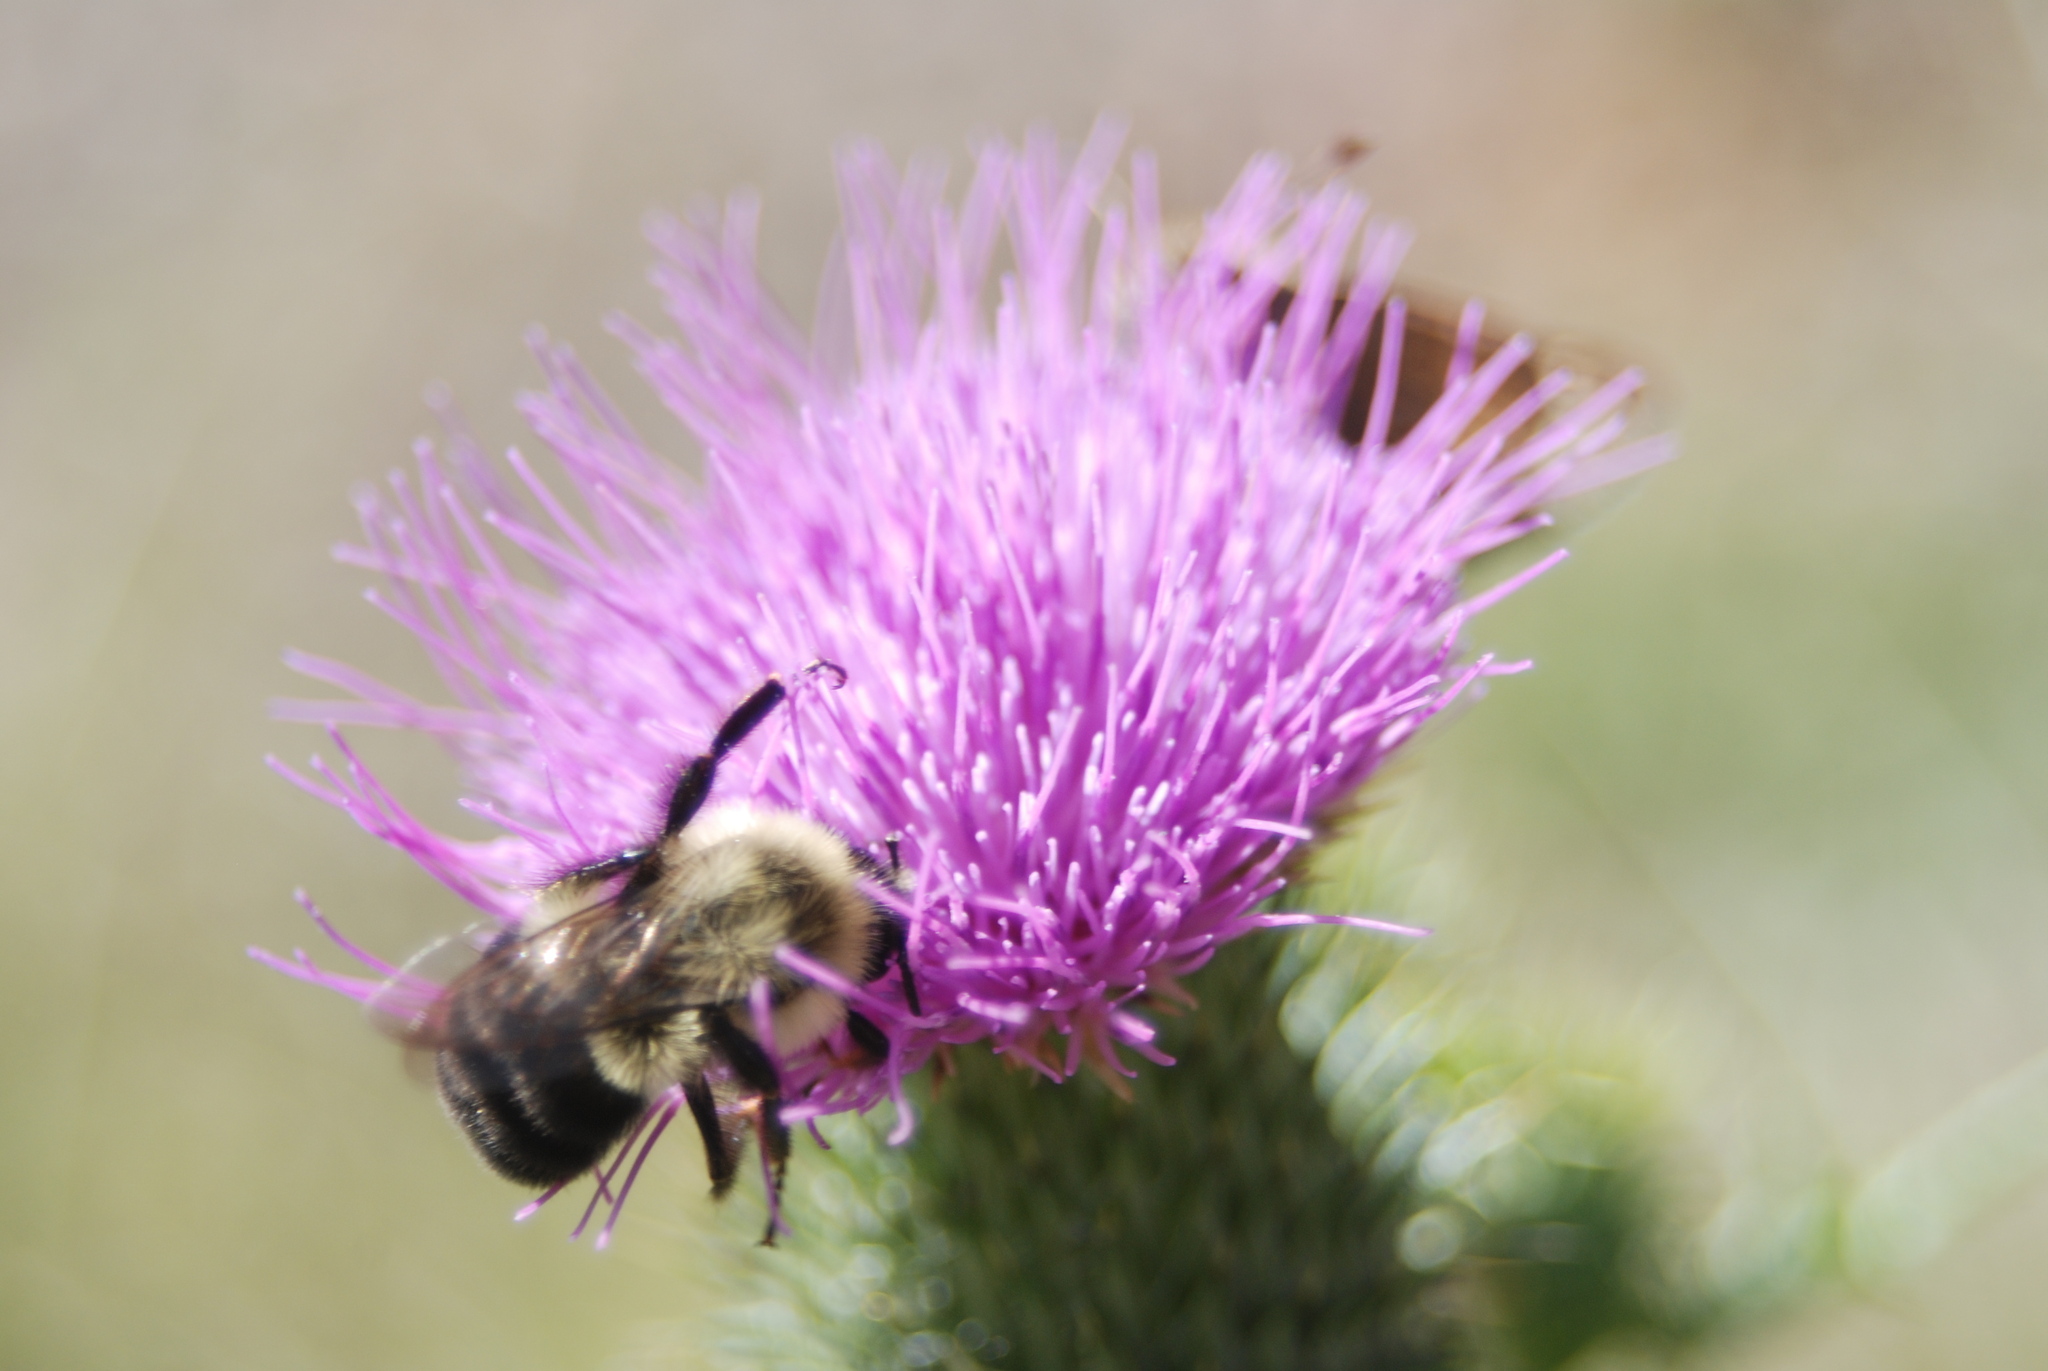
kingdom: Animalia
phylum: Arthropoda
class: Insecta
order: Hymenoptera
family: Apidae
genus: Bombus
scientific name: Bombus impatiens
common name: Common eastern bumble bee
